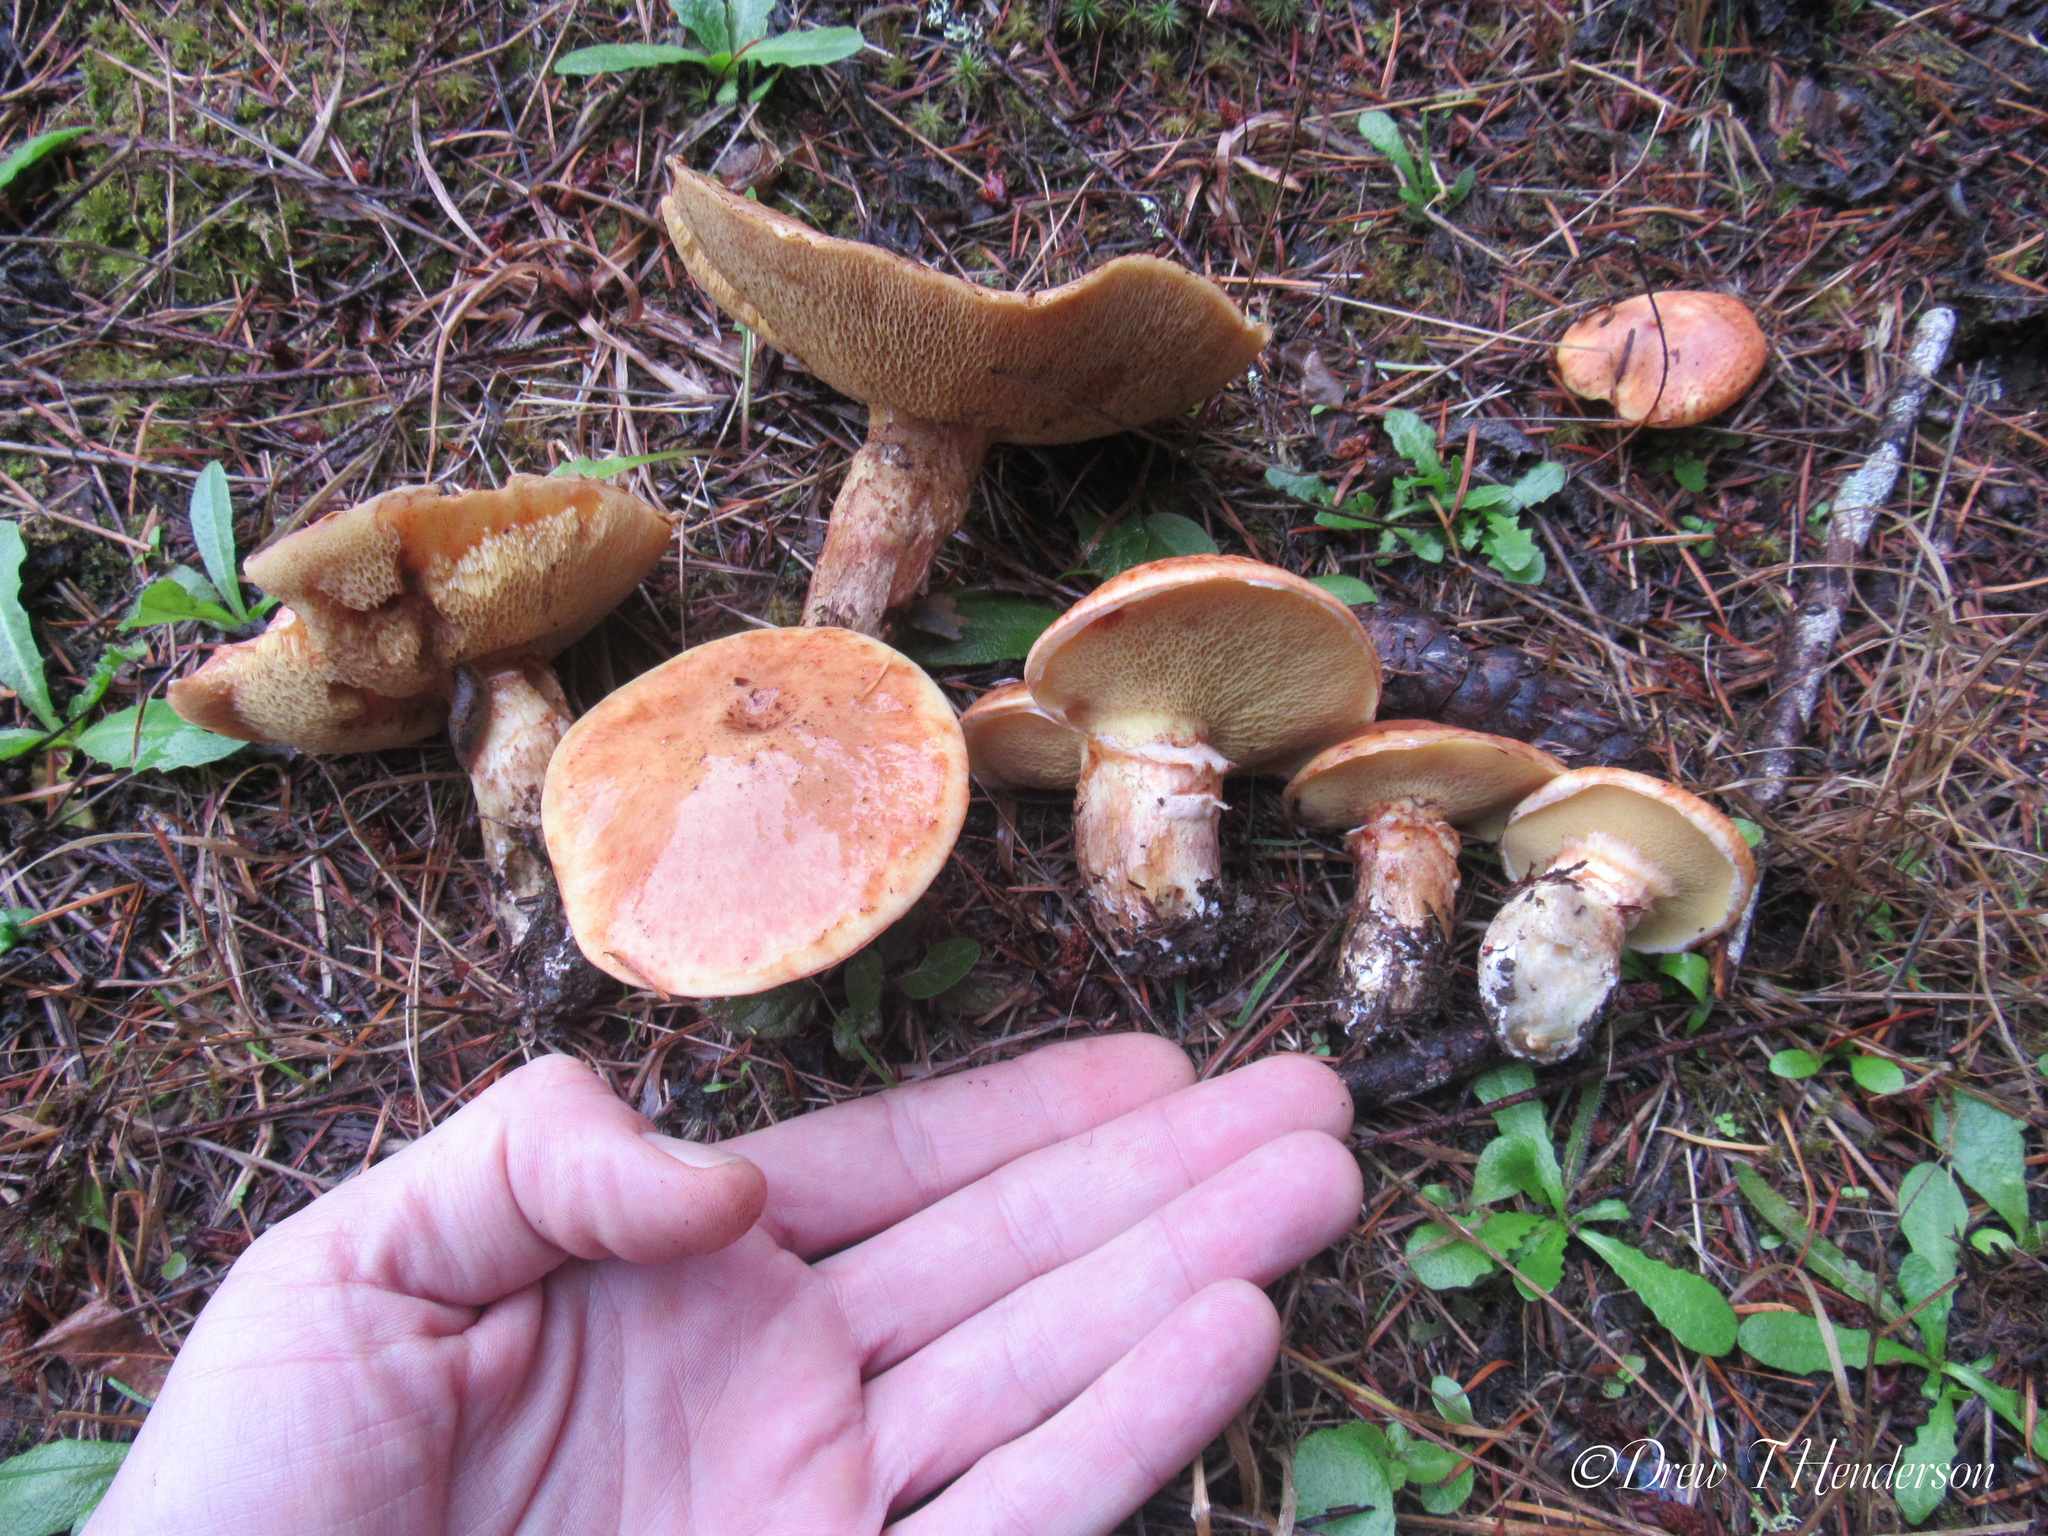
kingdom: Fungi
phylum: Basidiomycota
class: Agaricomycetes
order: Boletales
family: Suillaceae
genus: Suillus
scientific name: Suillus caerulescens
